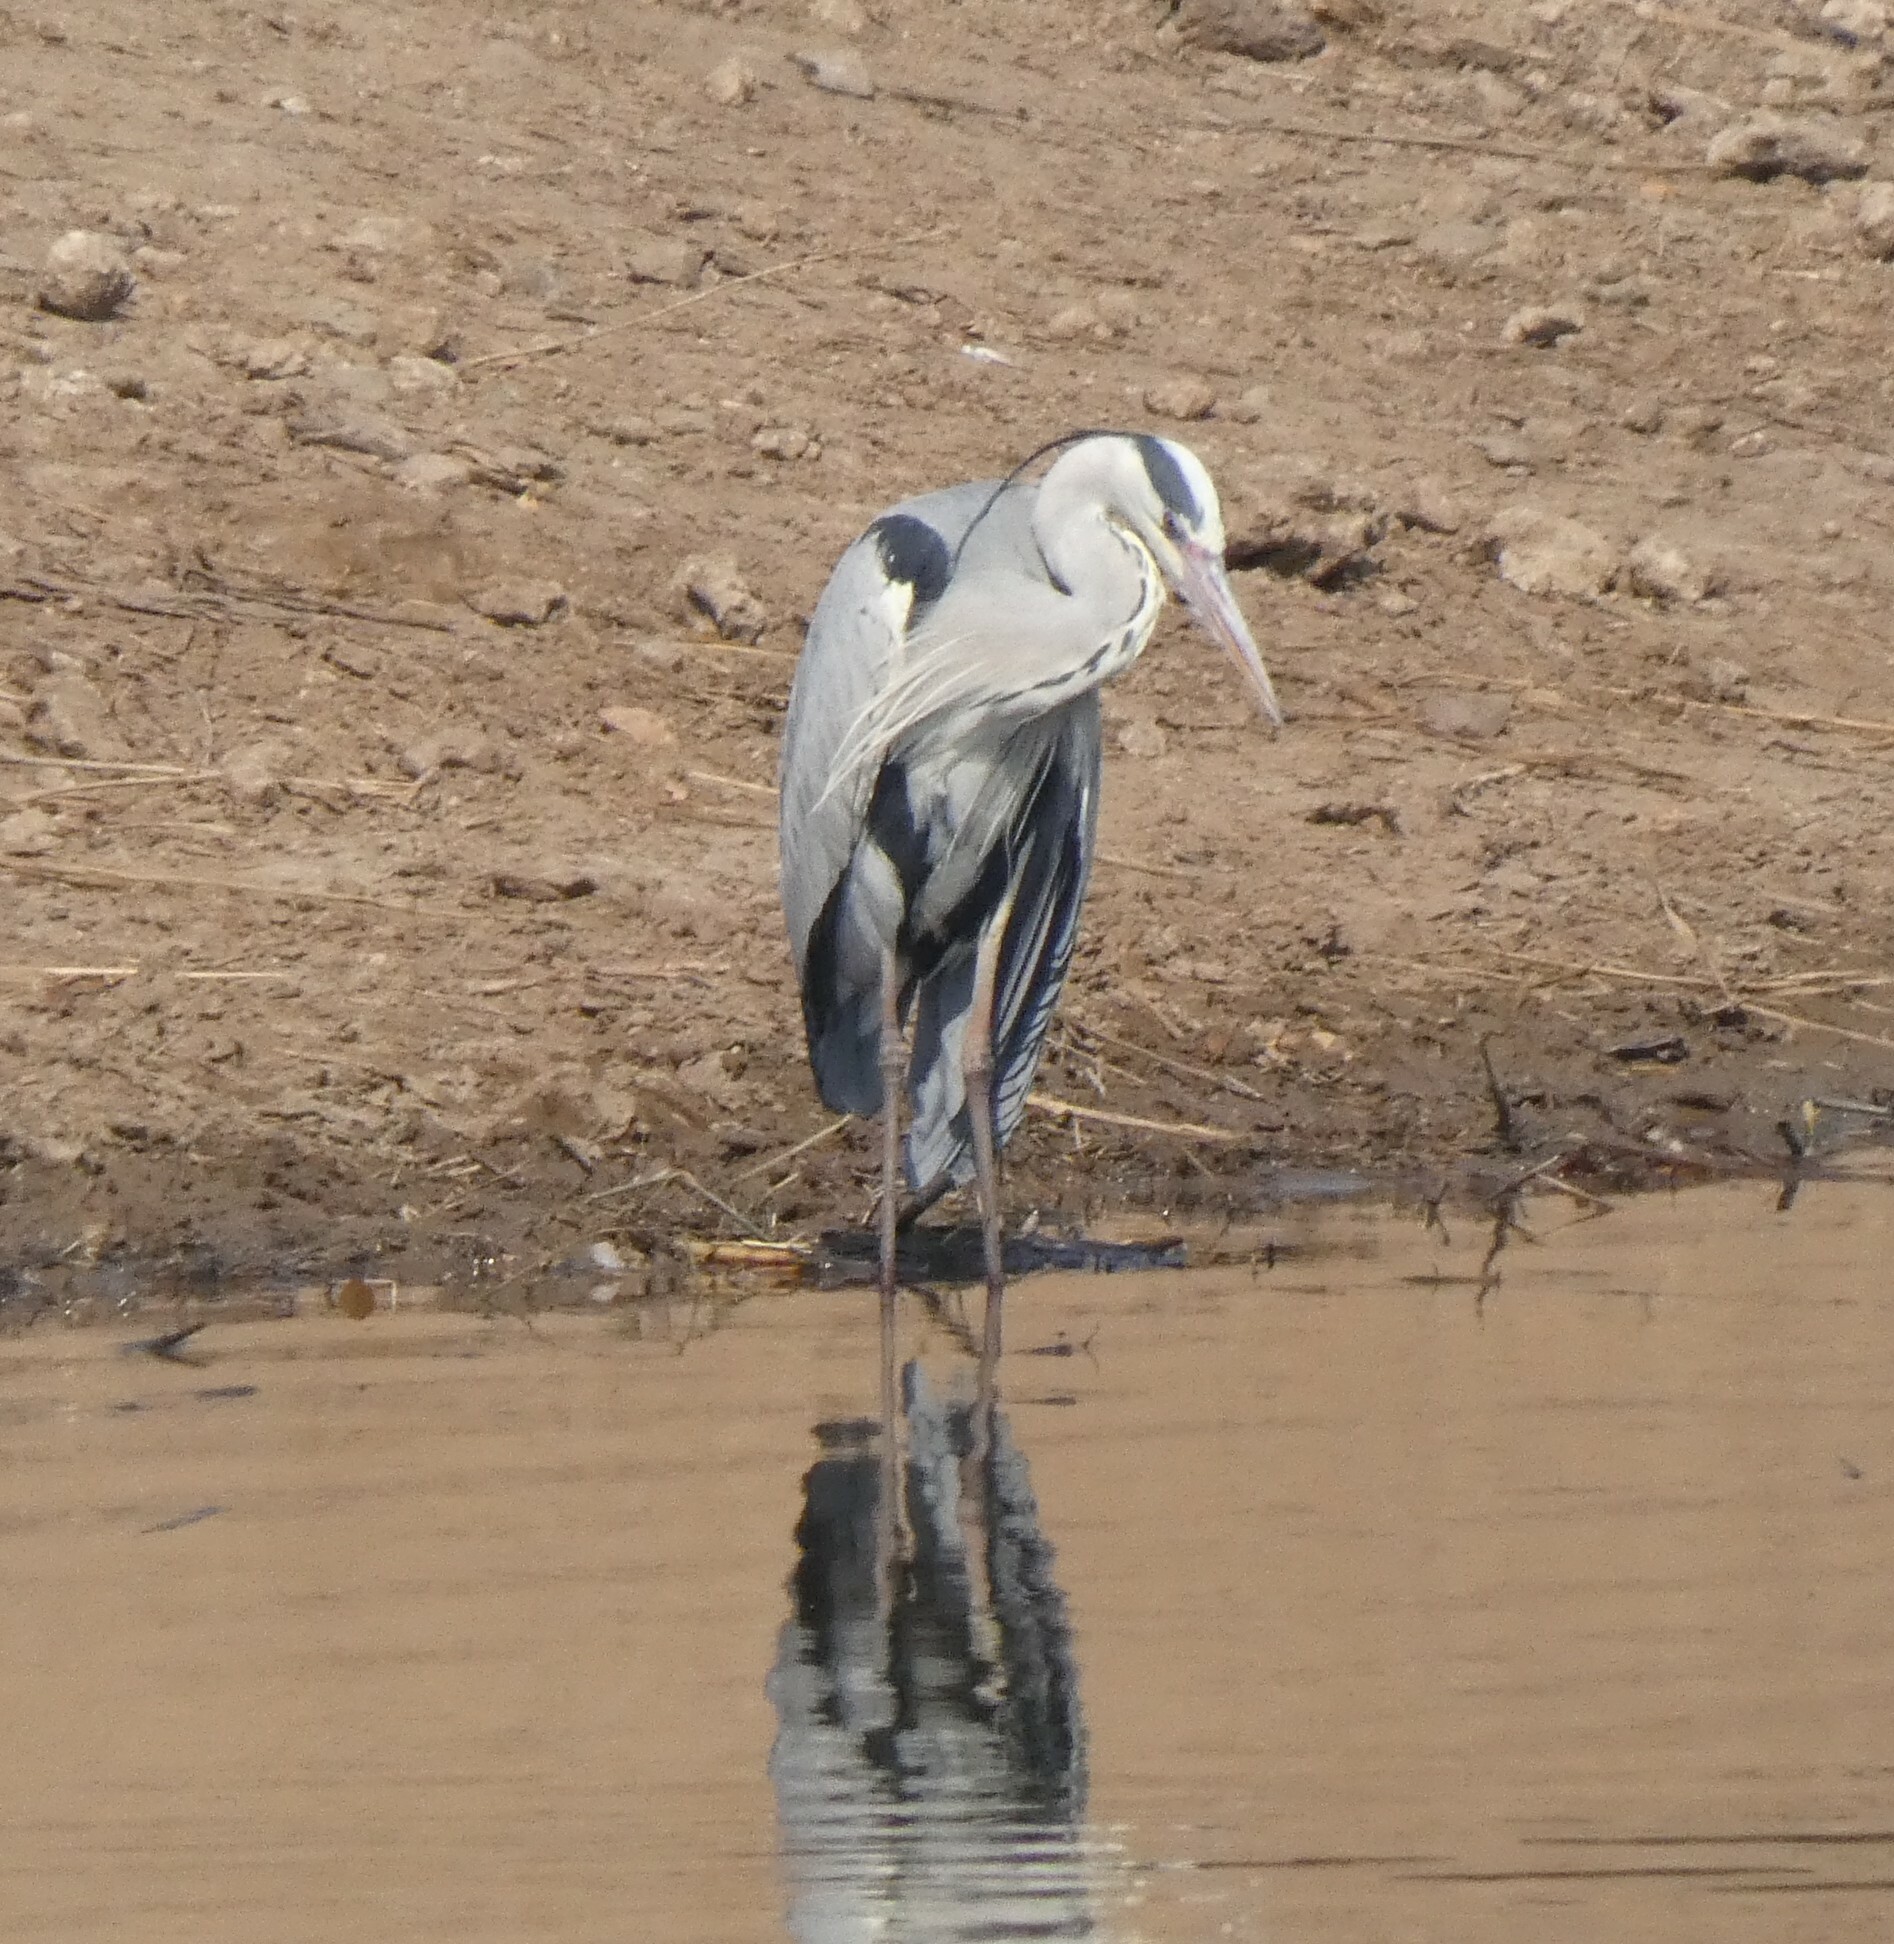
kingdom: Animalia
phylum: Chordata
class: Aves
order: Pelecaniformes
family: Ardeidae
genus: Ardea
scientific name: Ardea cinerea
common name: Grey heron
